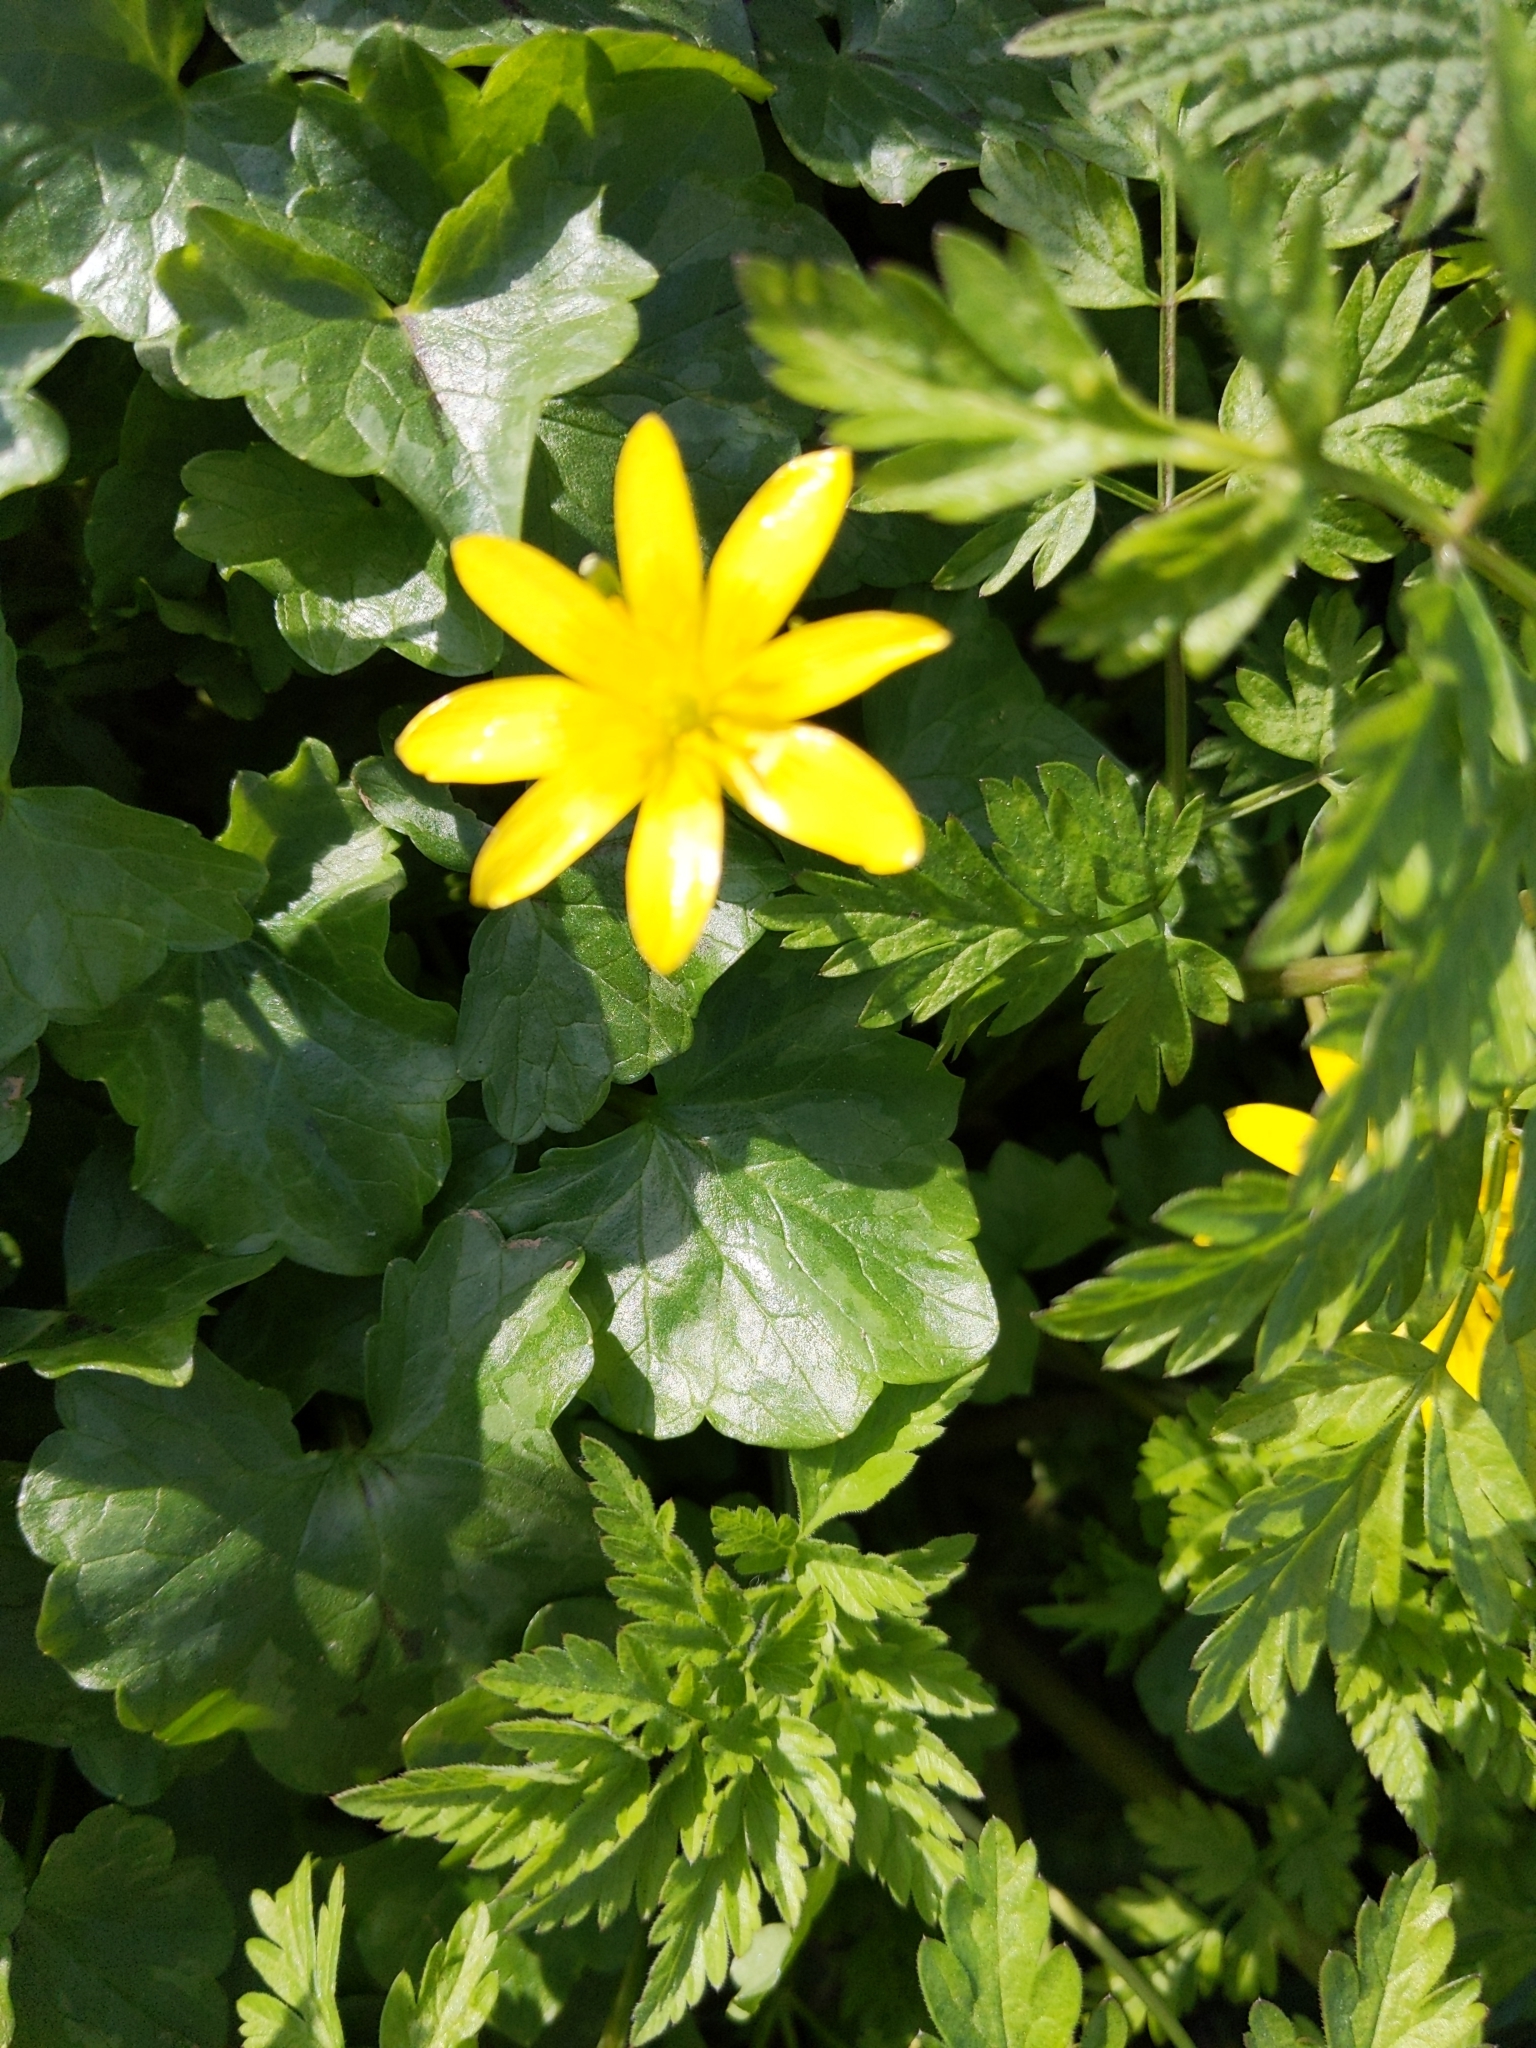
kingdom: Plantae
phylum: Tracheophyta
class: Magnoliopsida
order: Ranunculales
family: Ranunculaceae
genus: Ficaria
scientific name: Ficaria verna
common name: Lesser celandine
